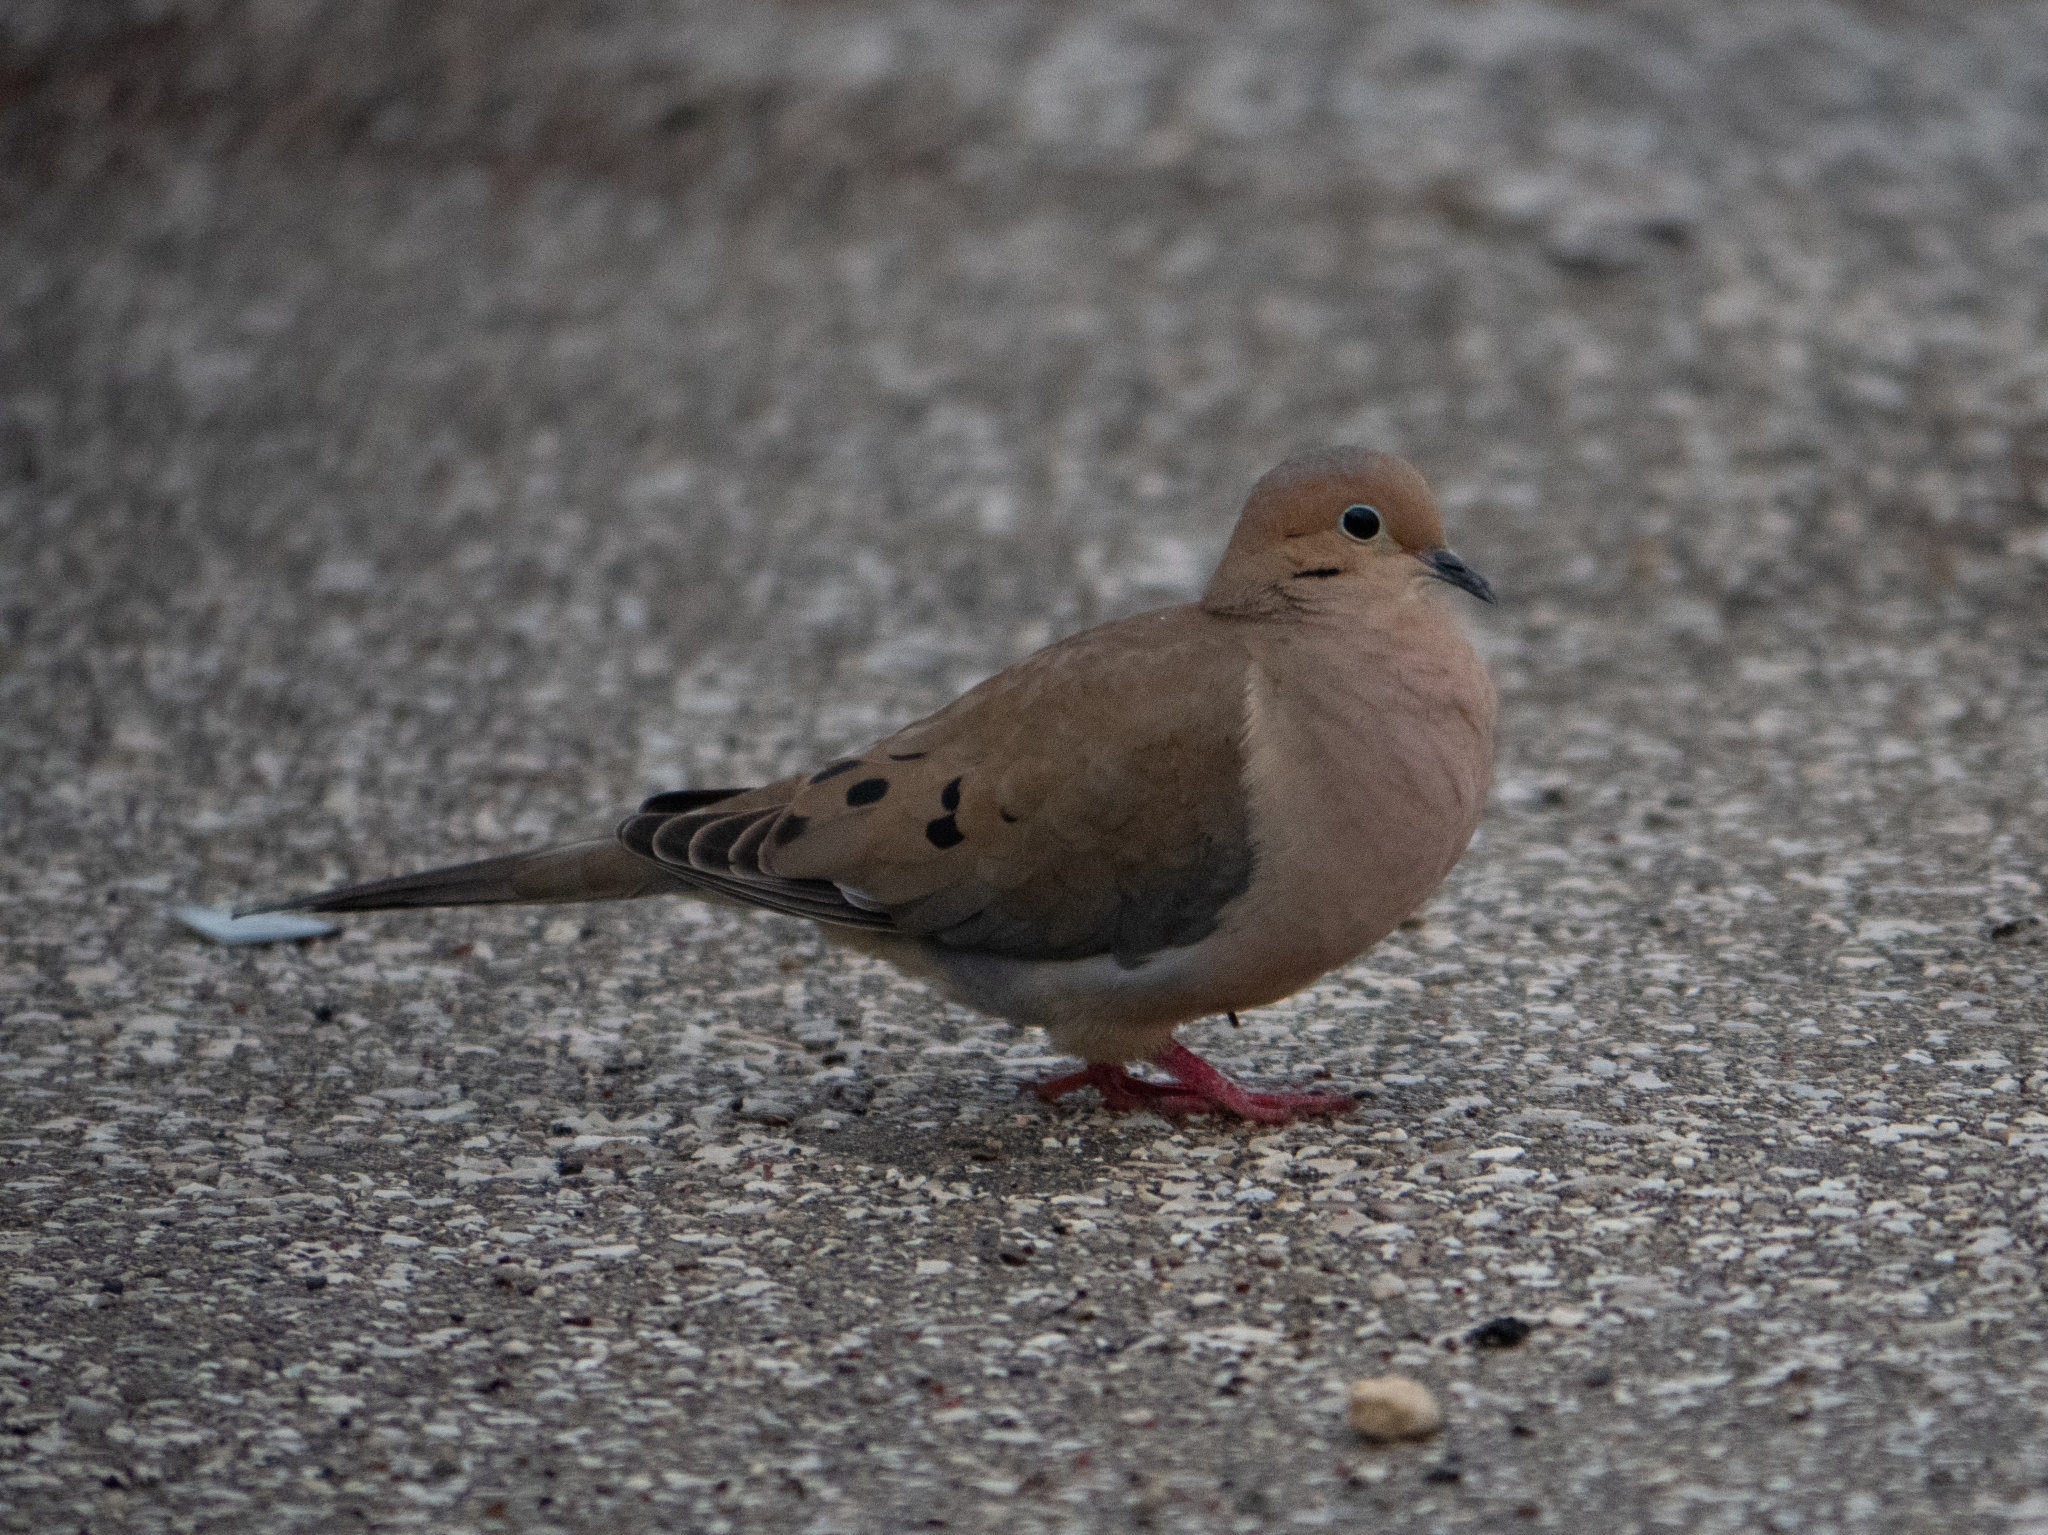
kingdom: Animalia
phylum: Chordata
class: Aves
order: Columbiformes
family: Columbidae
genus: Zenaida
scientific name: Zenaida macroura
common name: Mourning dove
